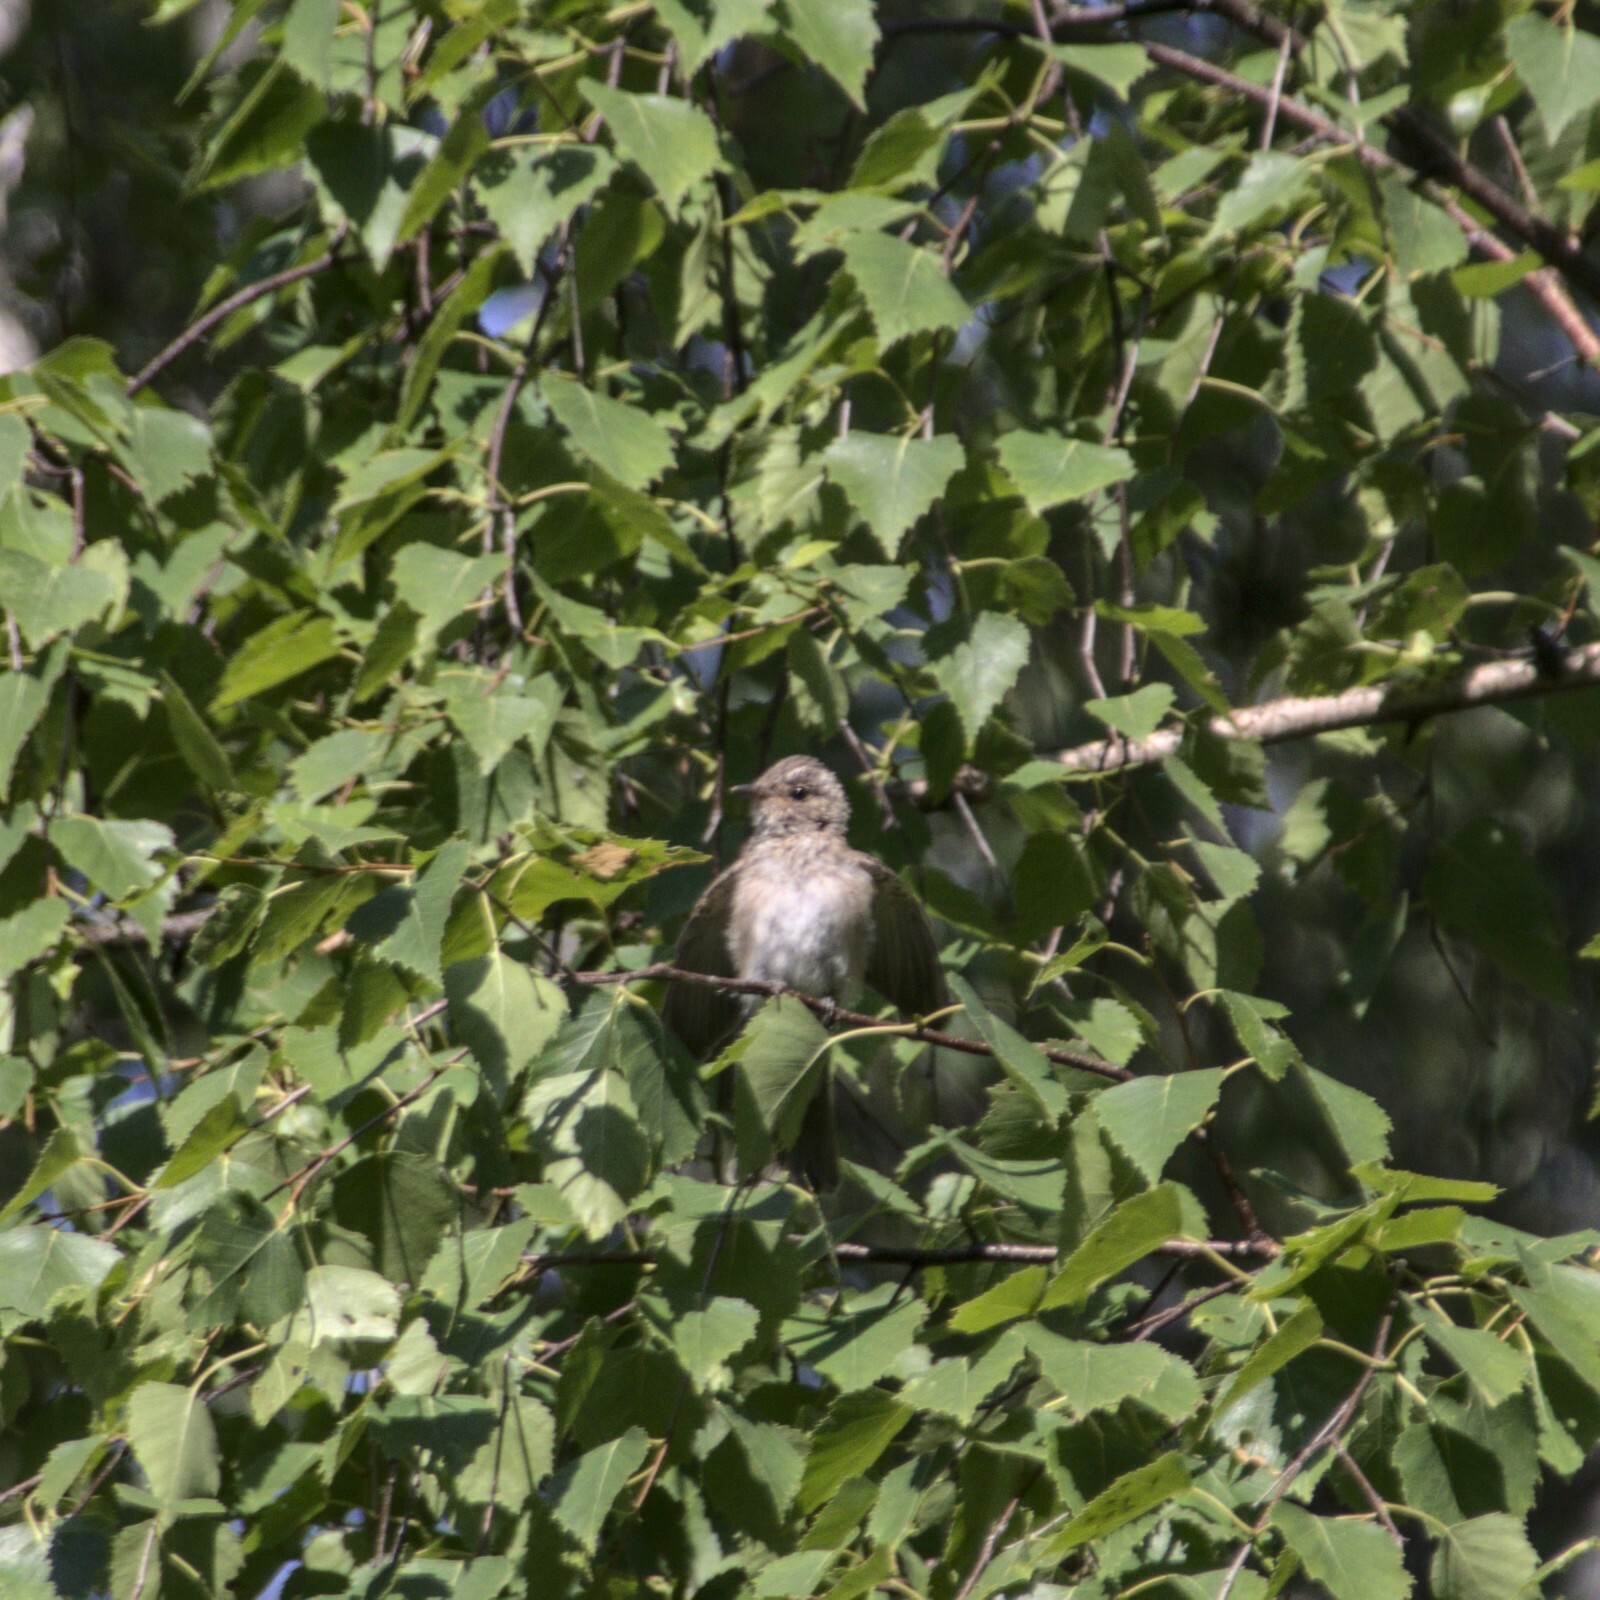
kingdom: Animalia
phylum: Chordata
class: Aves
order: Passeriformes
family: Muscicapidae
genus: Muscicapa
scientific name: Muscicapa striata
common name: Spotted flycatcher
